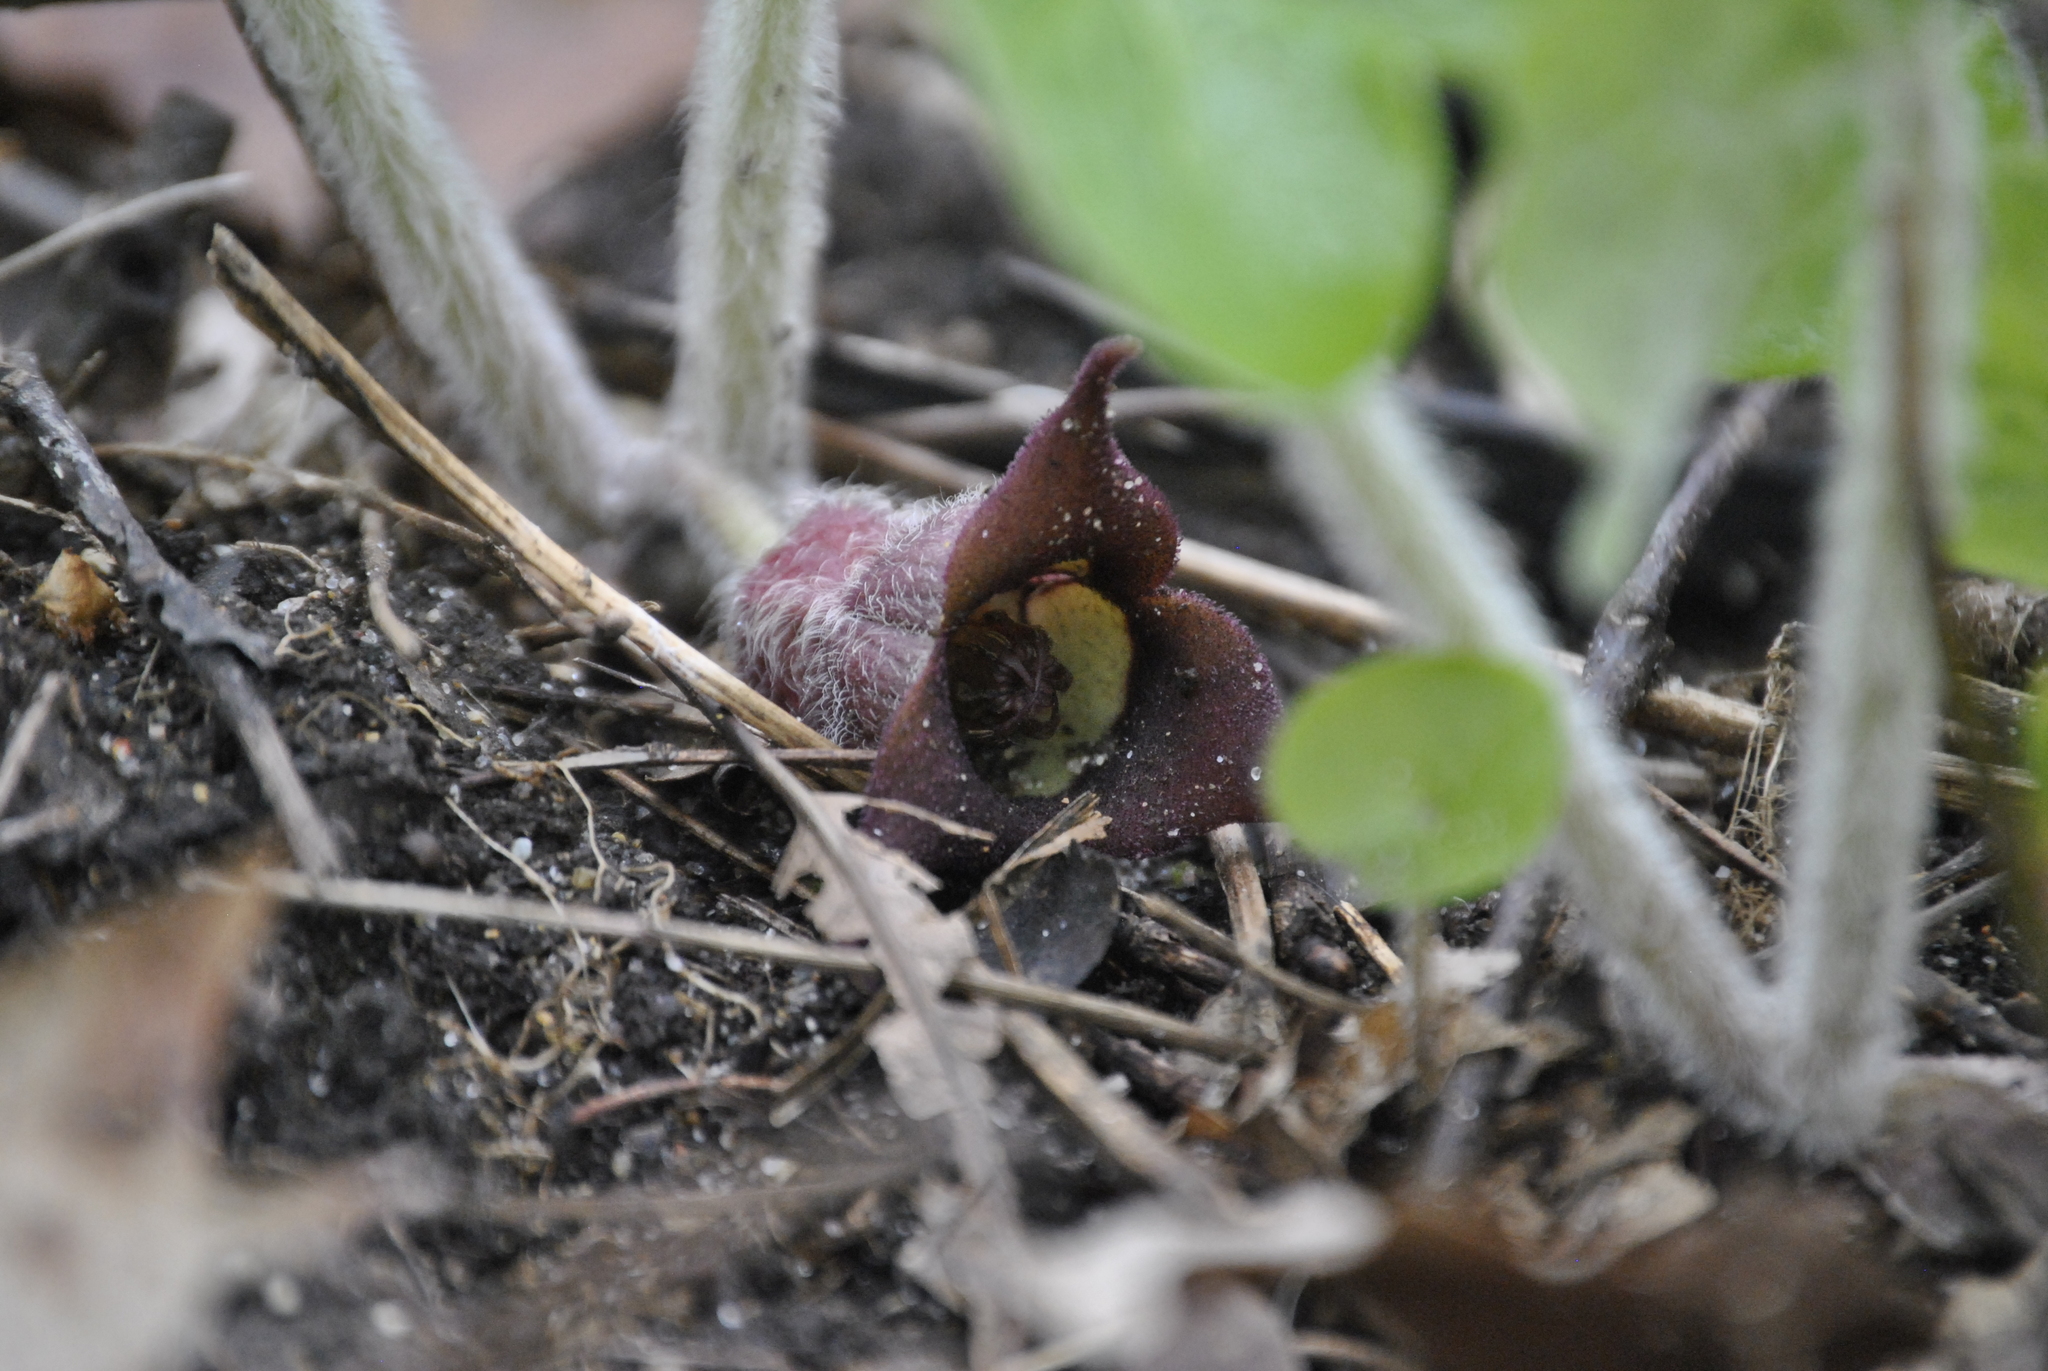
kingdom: Plantae
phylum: Tracheophyta
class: Magnoliopsida
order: Piperales
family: Aristolochiaceae
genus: Asarum
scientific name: Asarum canadense
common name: Wild ginger
